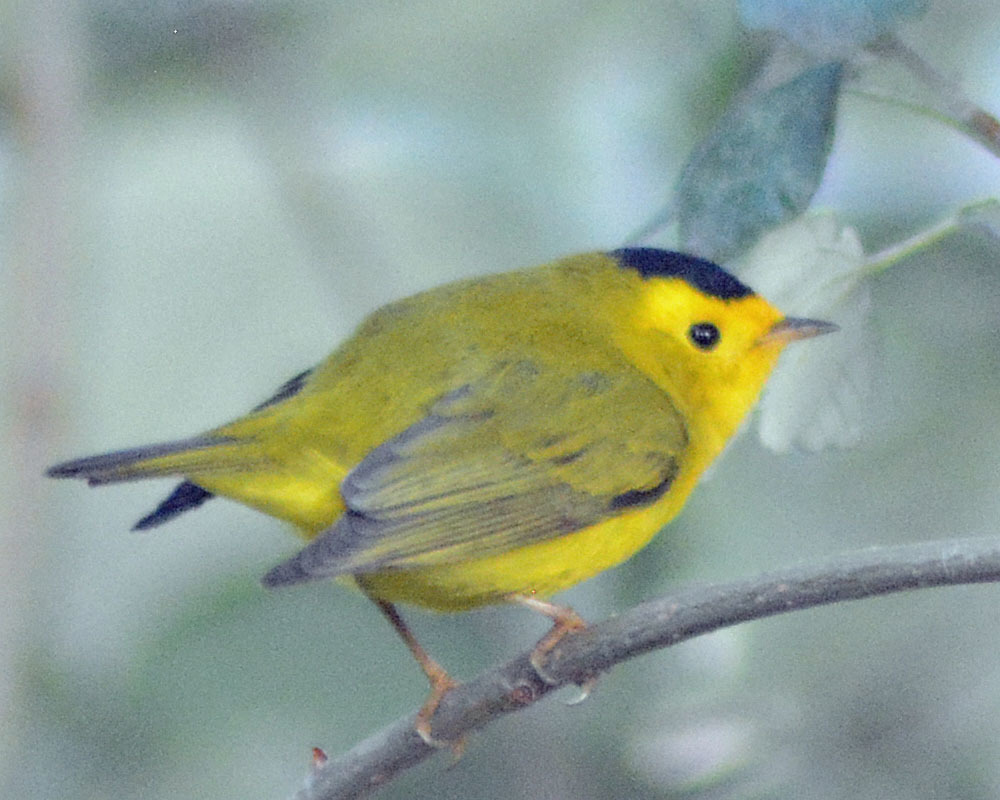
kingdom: Animalia
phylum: Chordata
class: Aves
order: Passeriformes
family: Parulidae
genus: Cardellina
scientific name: Cardellina pusilla
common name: Wilson's warbler
